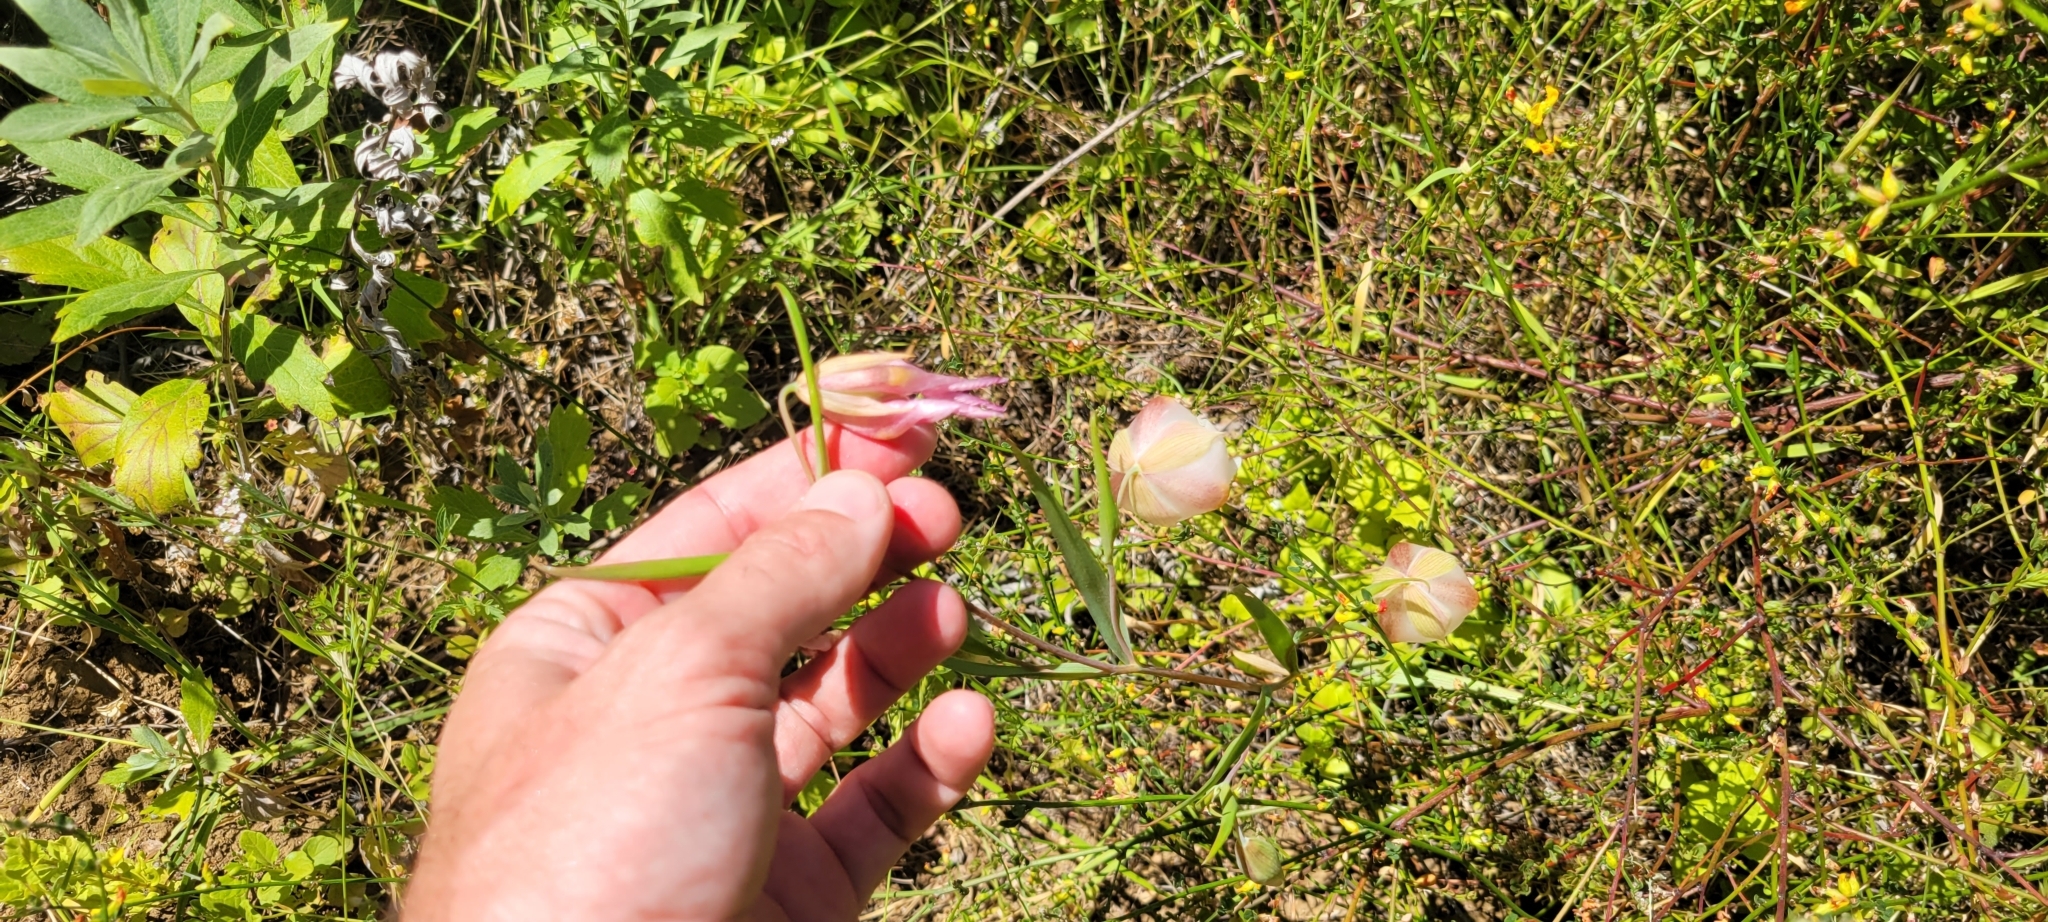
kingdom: Plantae
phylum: Tracheophyta
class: Liliopsida
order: Liliales
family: Liliaceae
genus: Calochortus
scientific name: Calochortus albus
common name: Fairy-lantern
